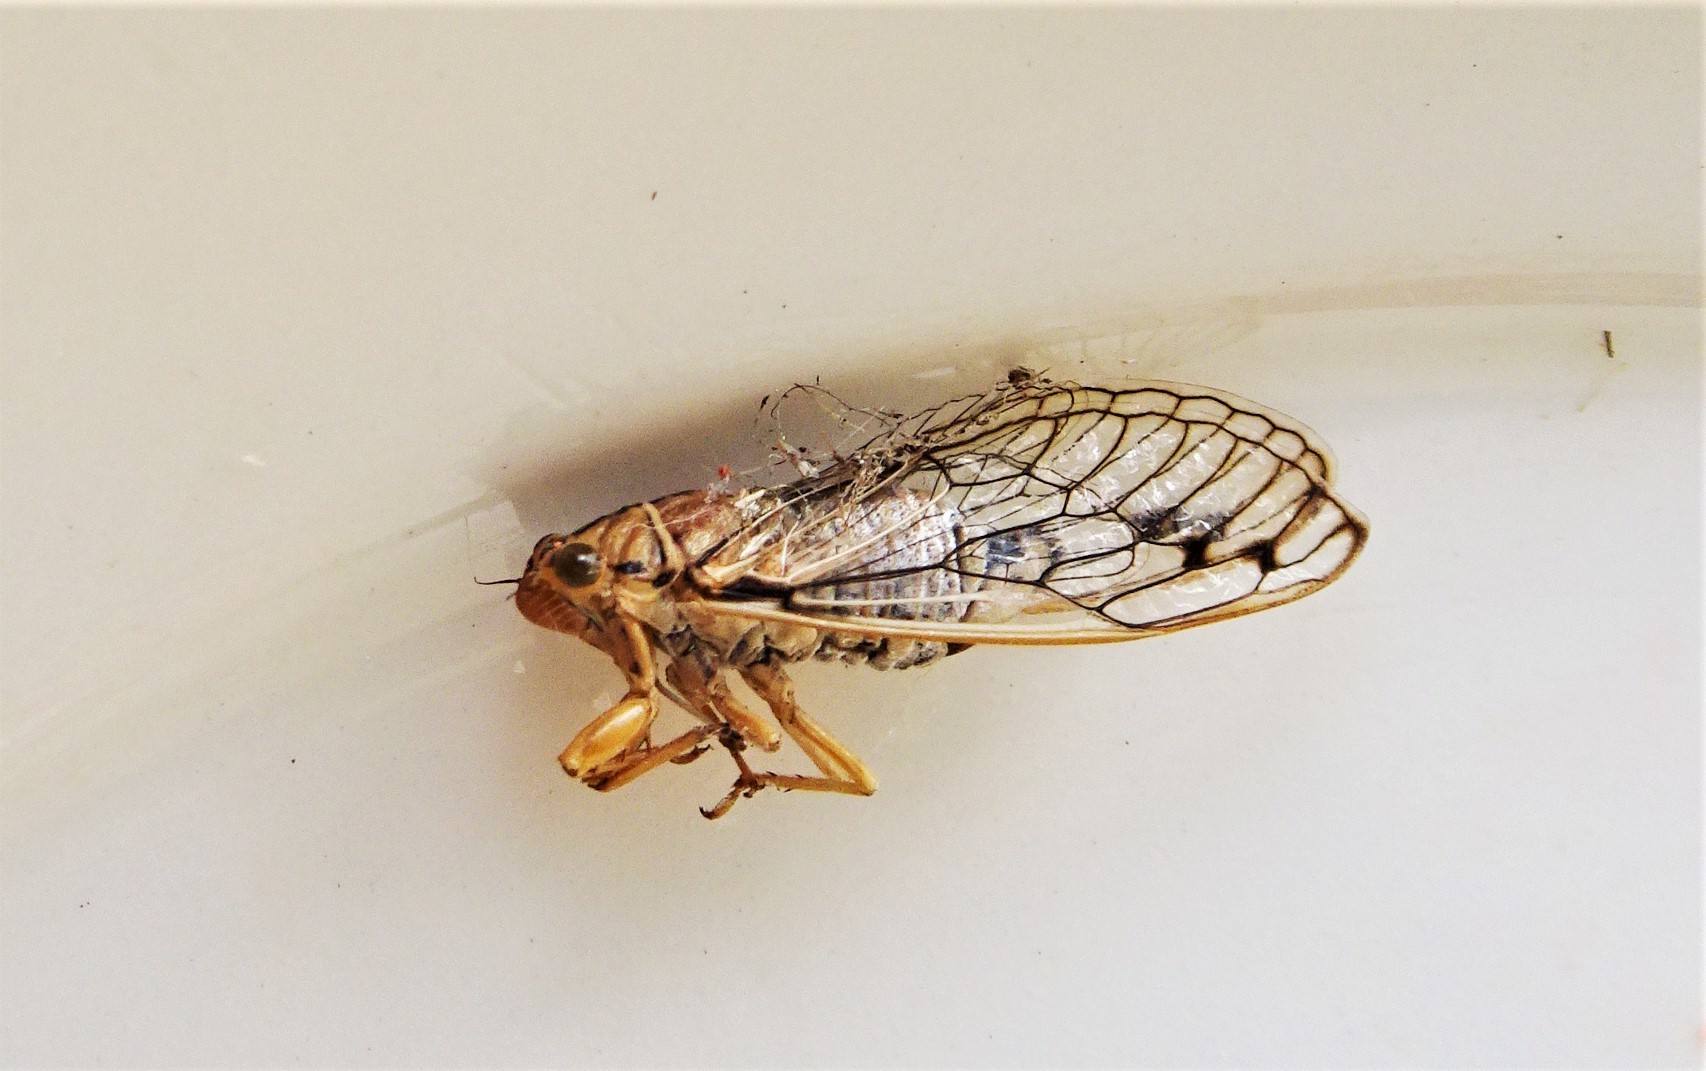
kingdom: Animalia
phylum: Arthropoda
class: Insecta
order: Hemiptera
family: Cicadidae
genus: Parnkalla
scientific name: Parnkalla muelleri
